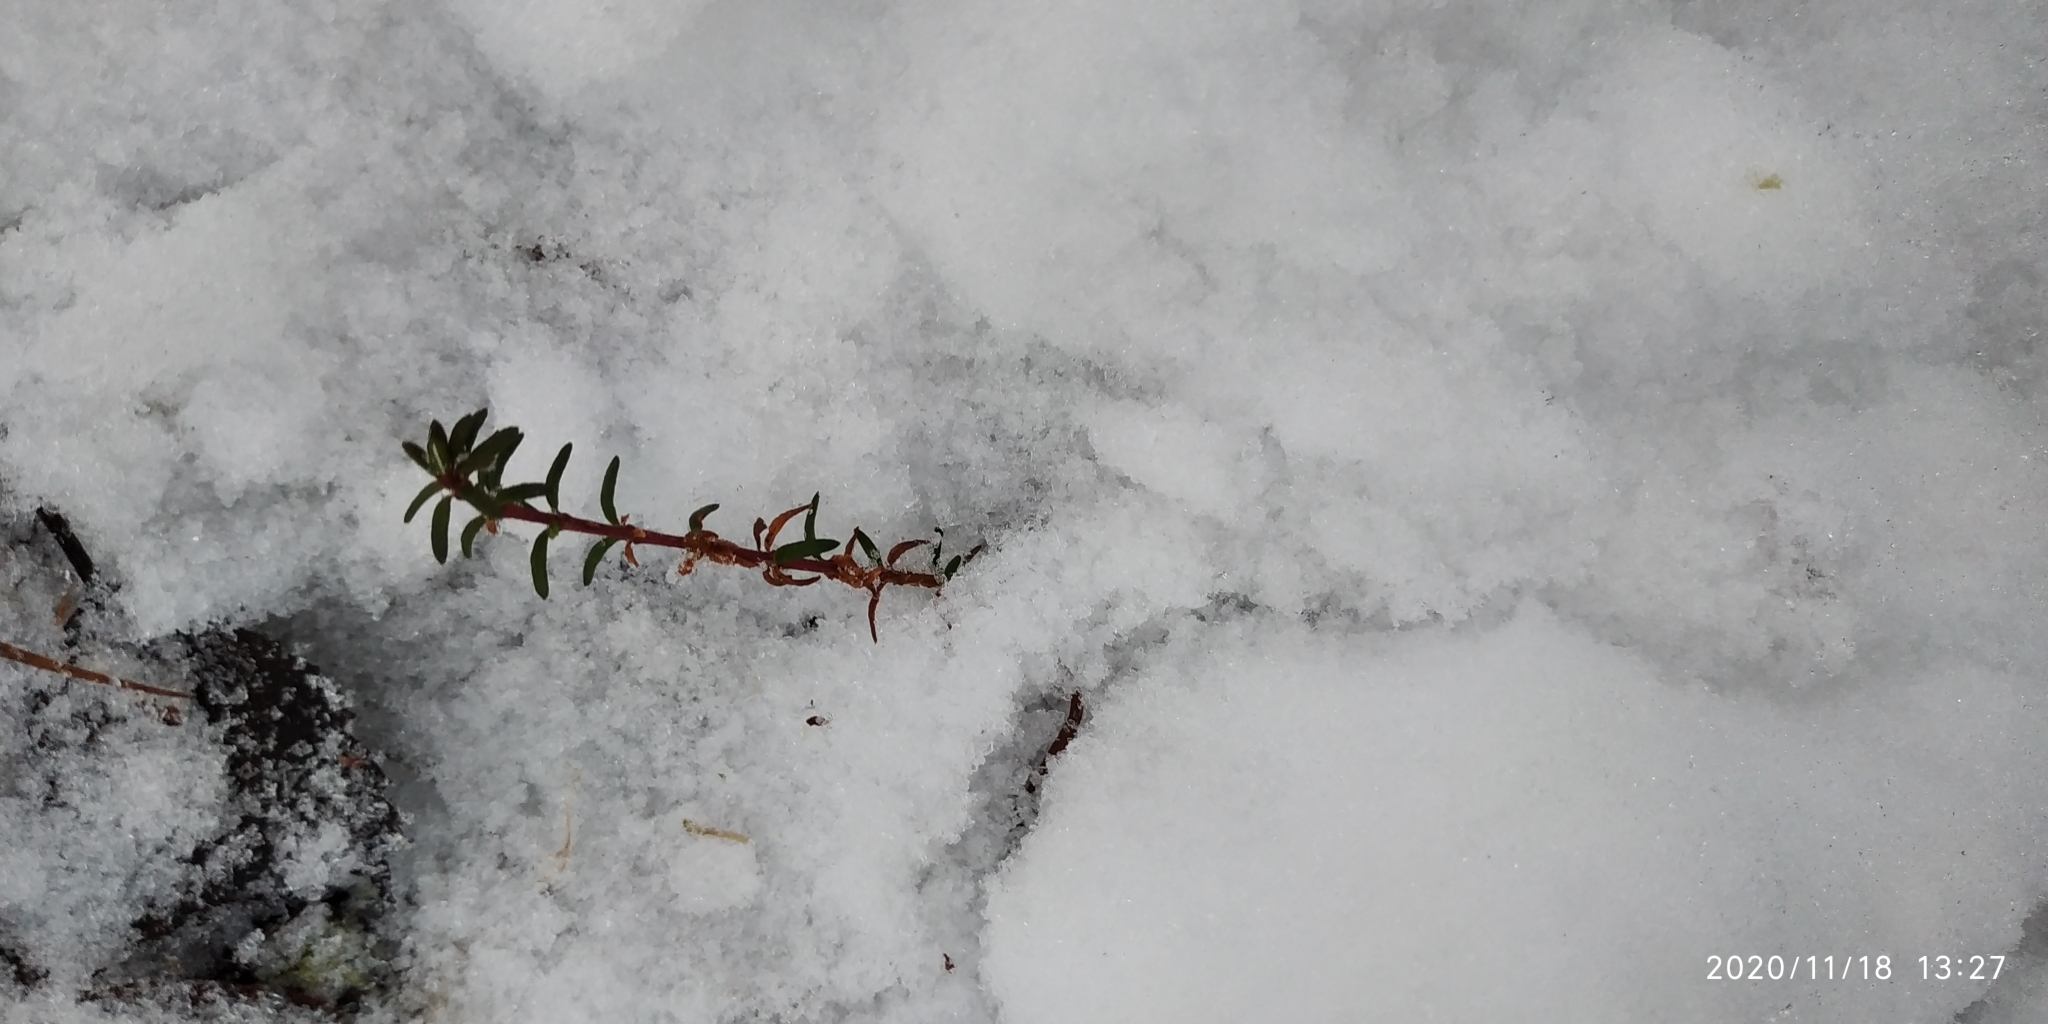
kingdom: Plantae
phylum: Tracheophyta
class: Magnoliopsida
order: Ericales
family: Ericaceae
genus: Empetrum
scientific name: Empetrum nigrum
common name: Black crowberry
